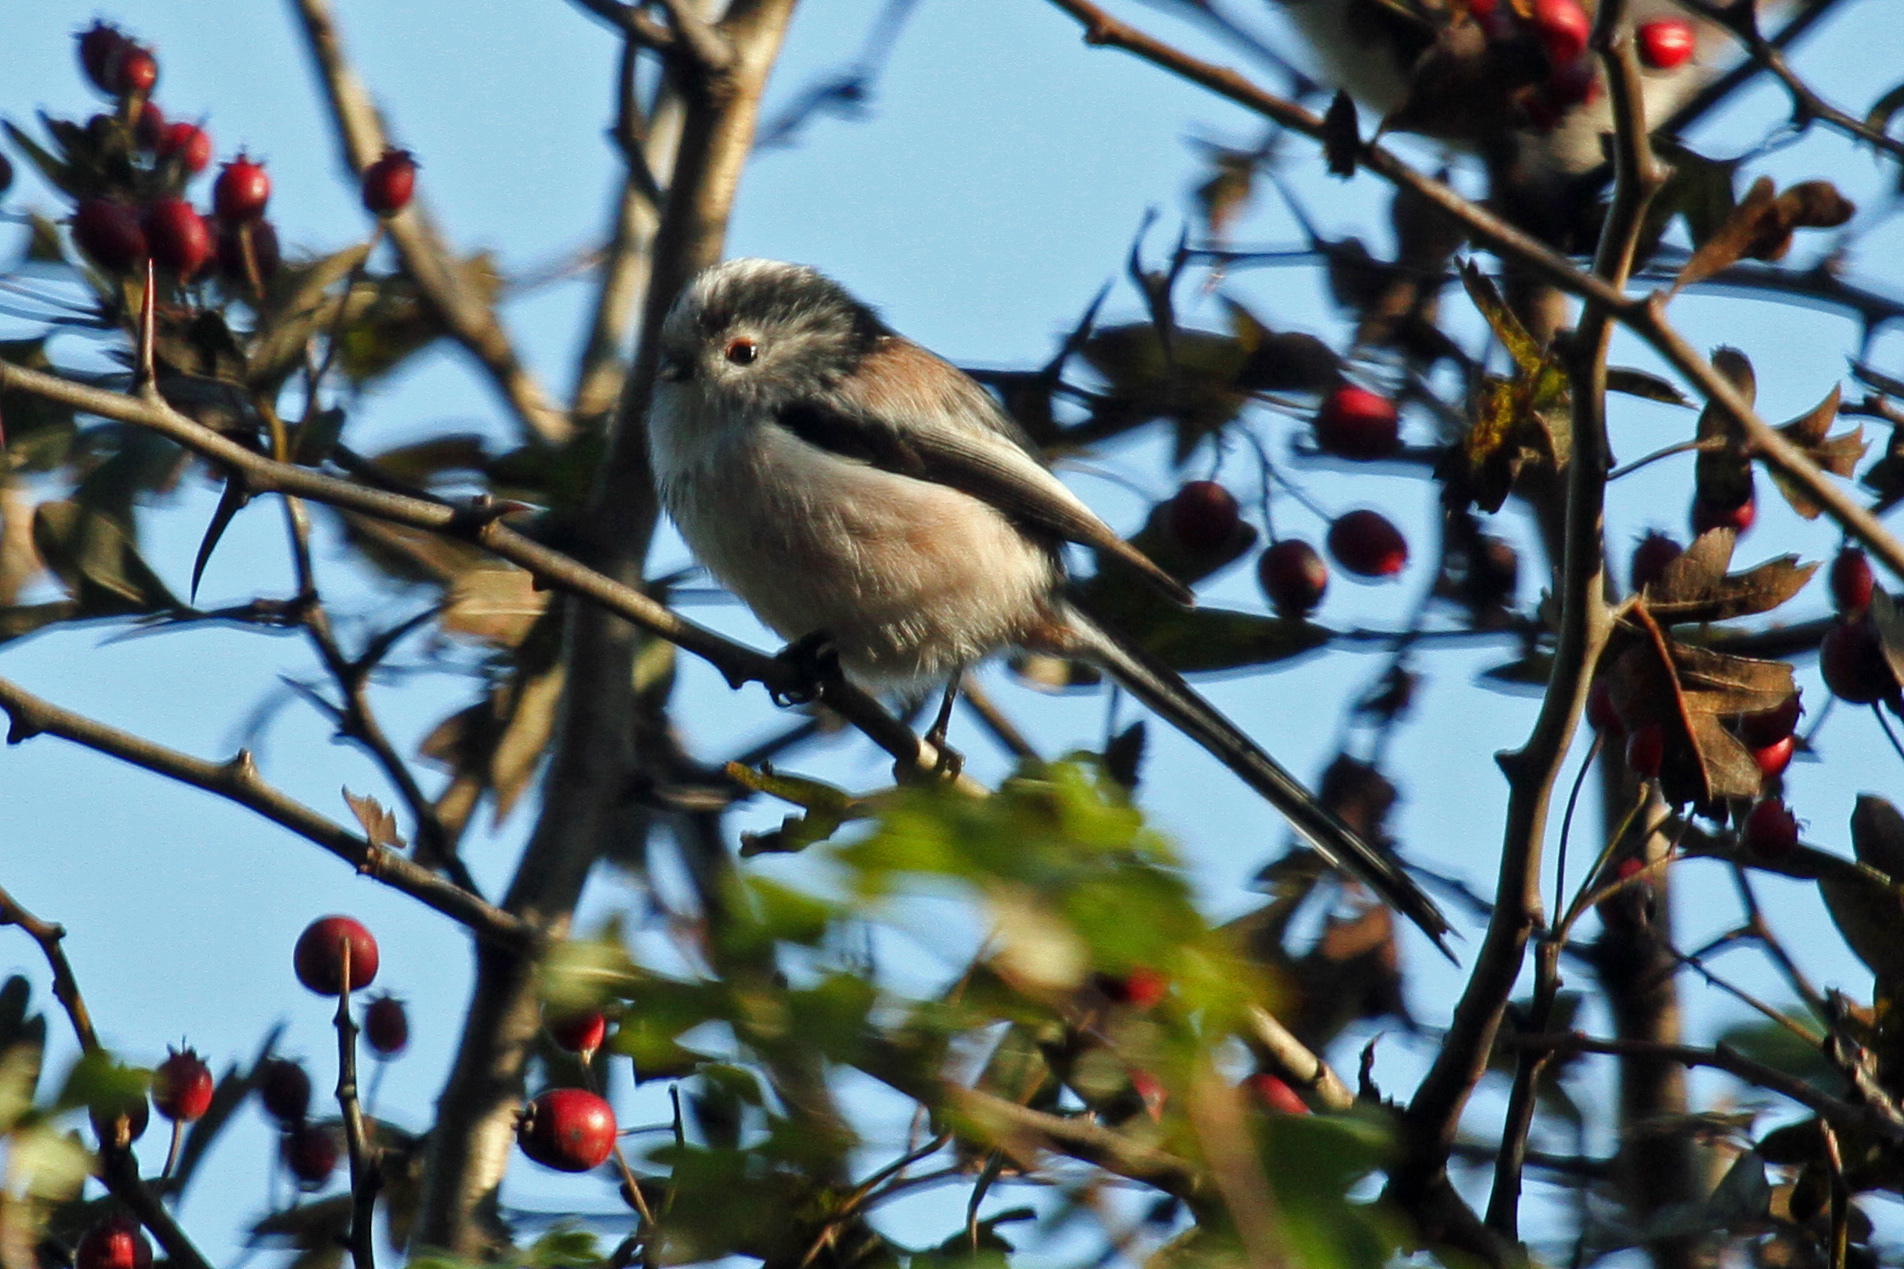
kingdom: Animalia
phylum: Chordata
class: Aves
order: Passeriformes
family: Aegithalidae
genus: Aegithalos
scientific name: Aegithalos caudatus
